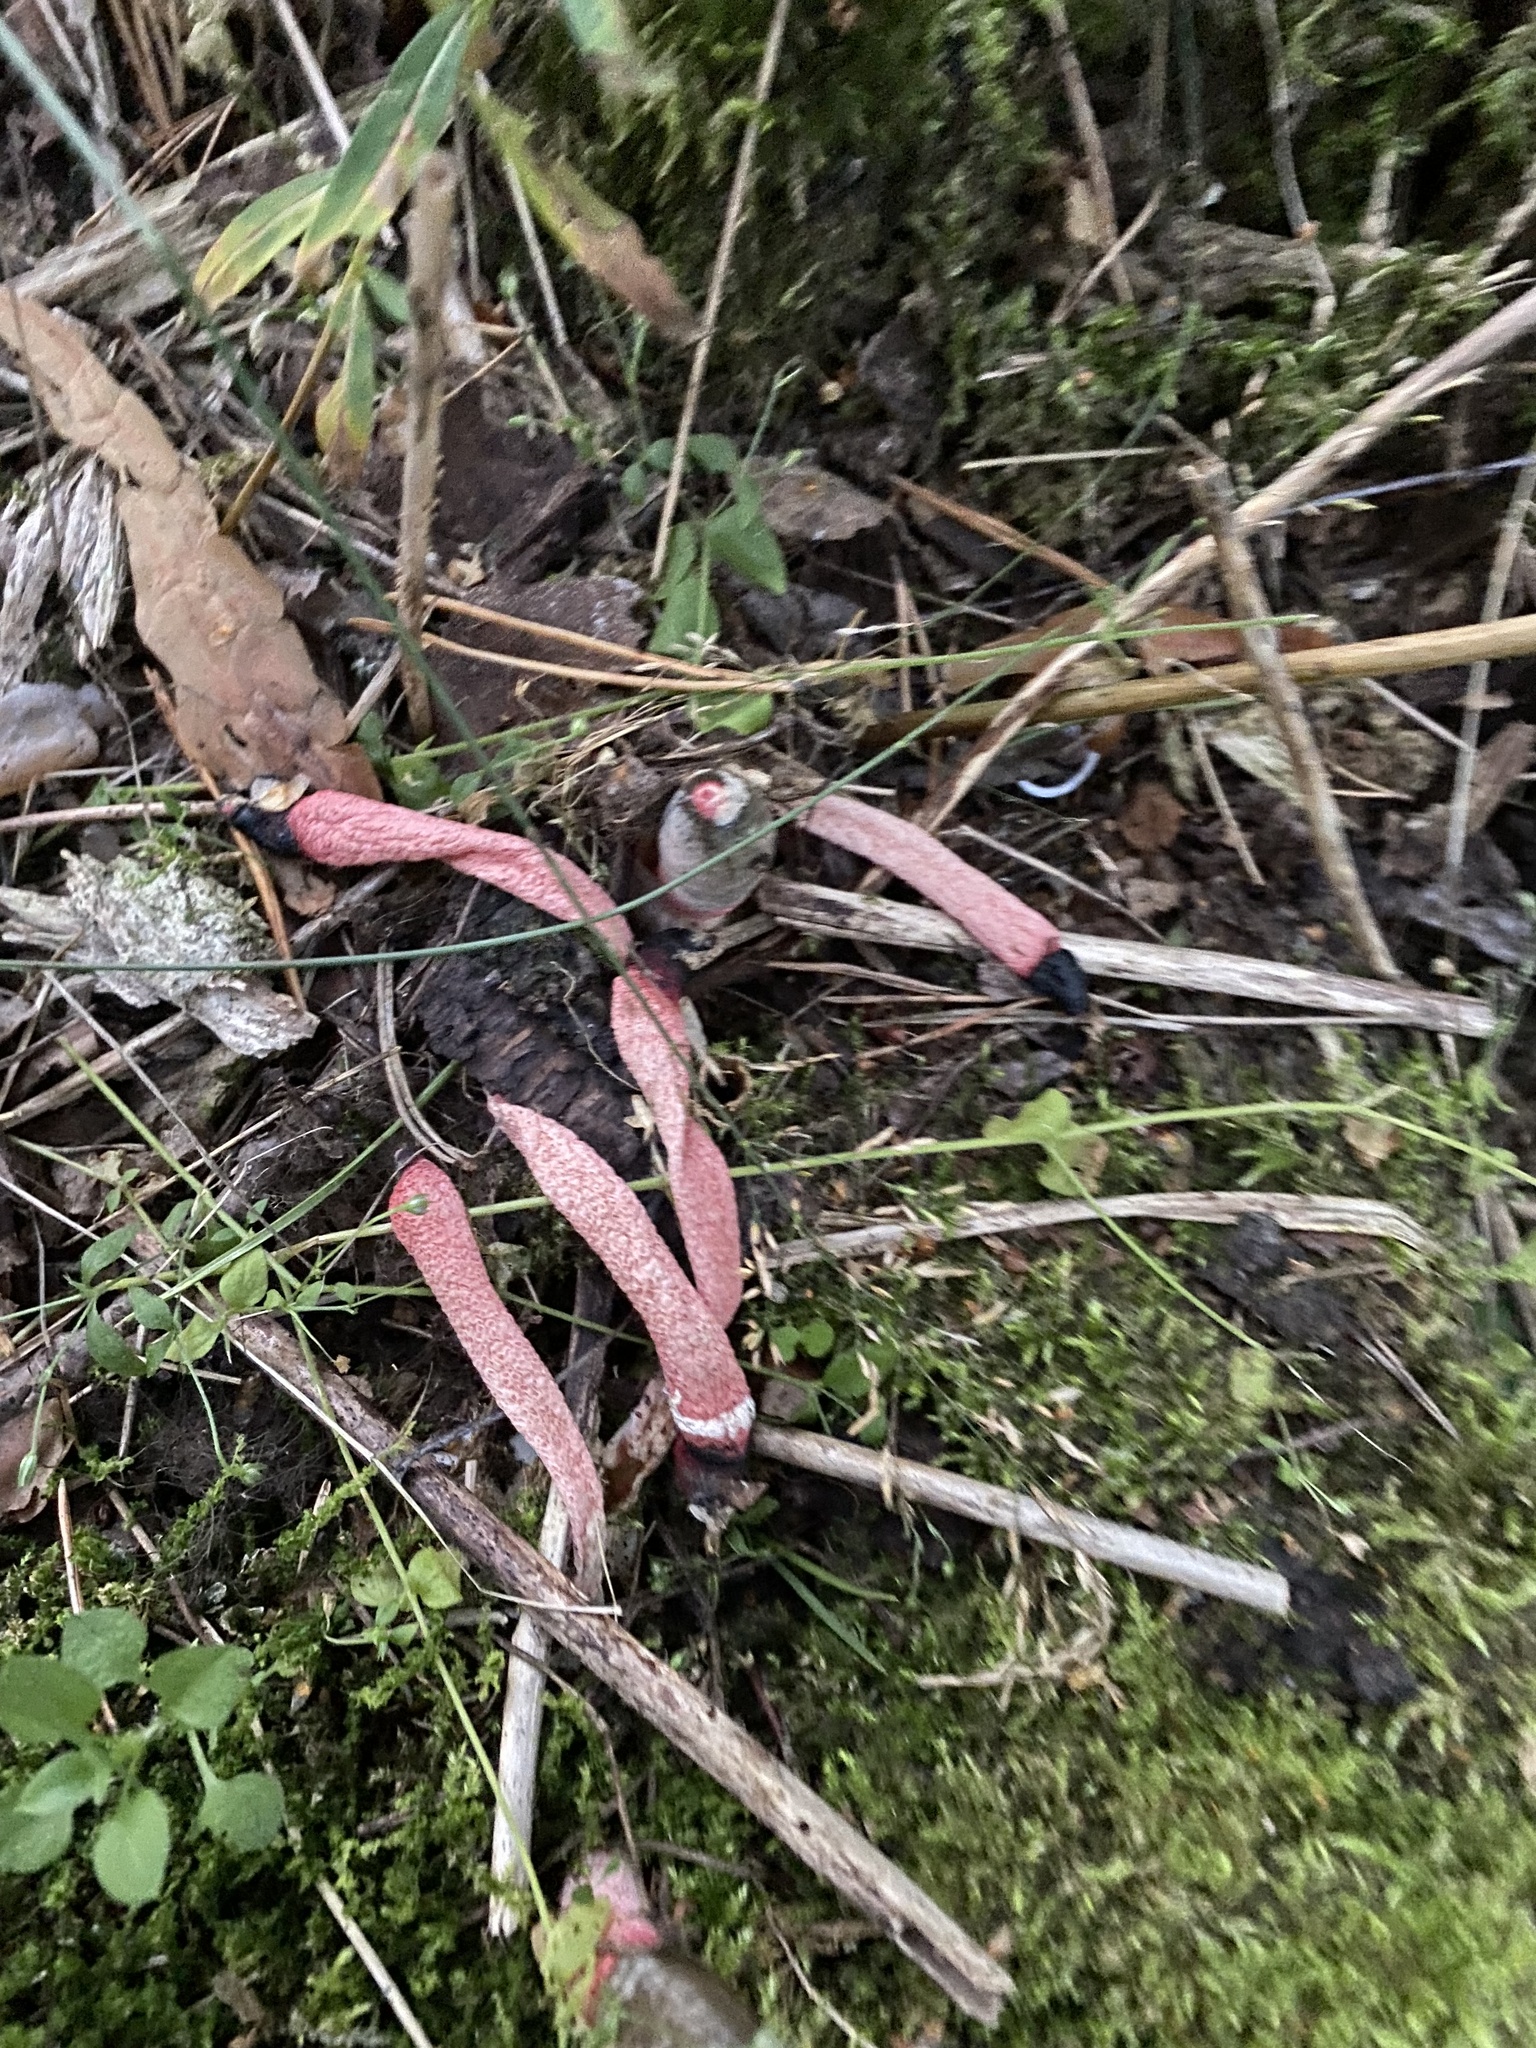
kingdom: Fungi
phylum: Basidiomycota
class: Agaricomycetes
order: Phallales
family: Phallaceae
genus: Mutinus
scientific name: Mutinus ravenelii
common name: Red stinkhorn
